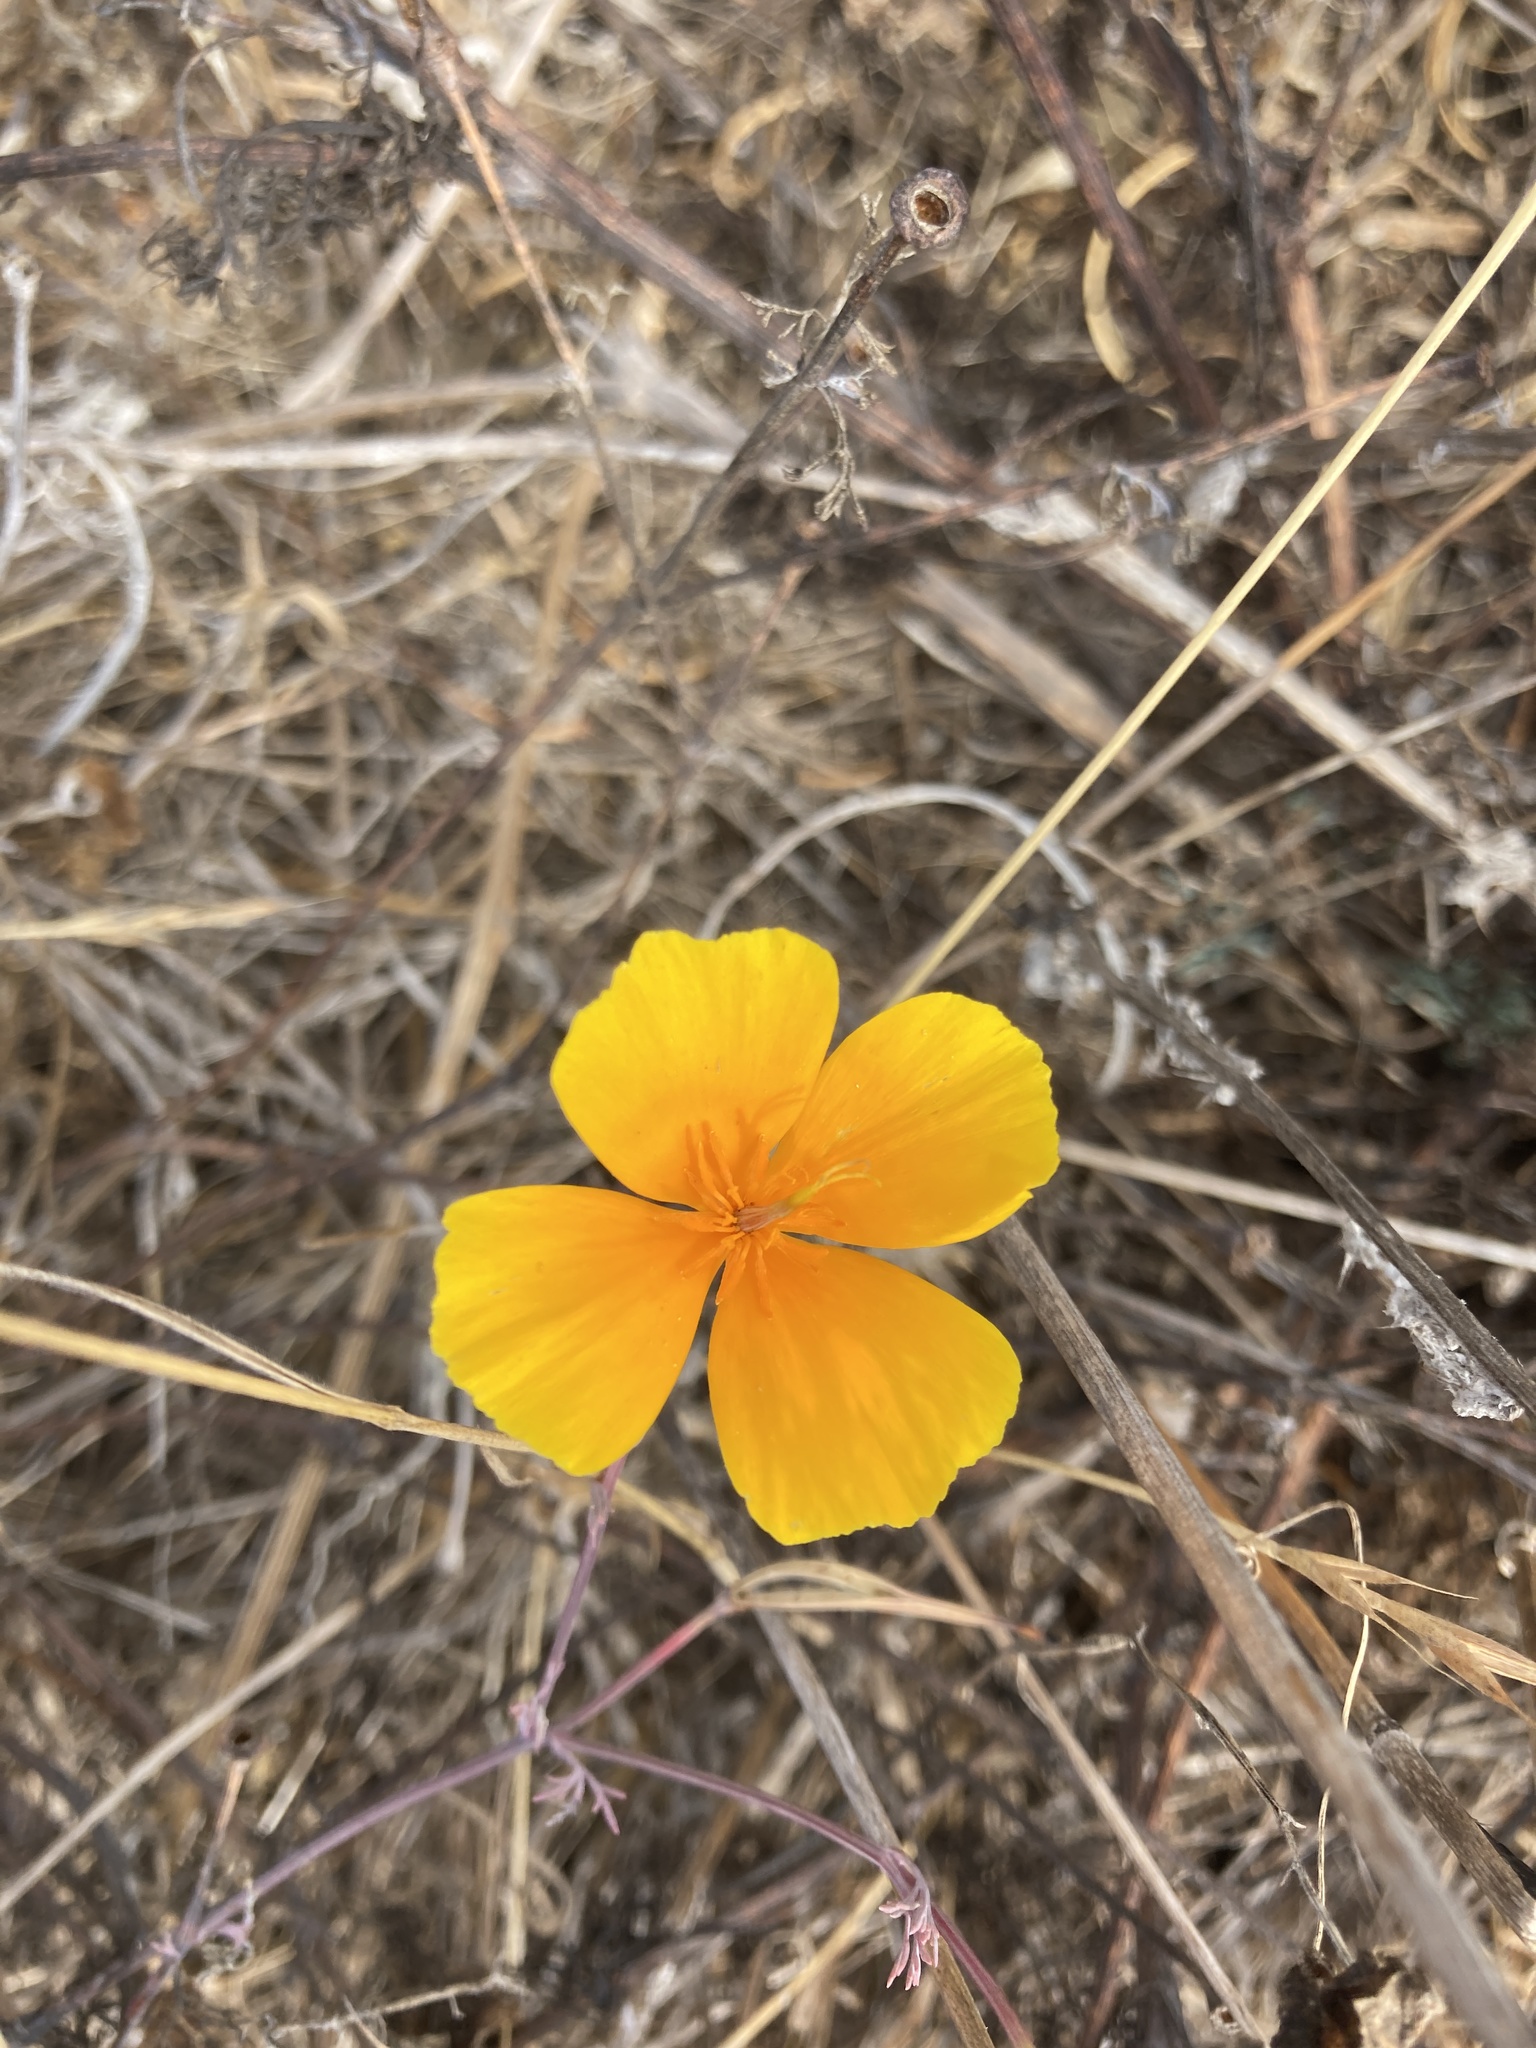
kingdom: Plantae
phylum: Tracheophyta
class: Magnoliopsida
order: Ranunculales
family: Papaveraceae
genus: Eschscholzia
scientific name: Eschscholzia californica
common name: California poppy
